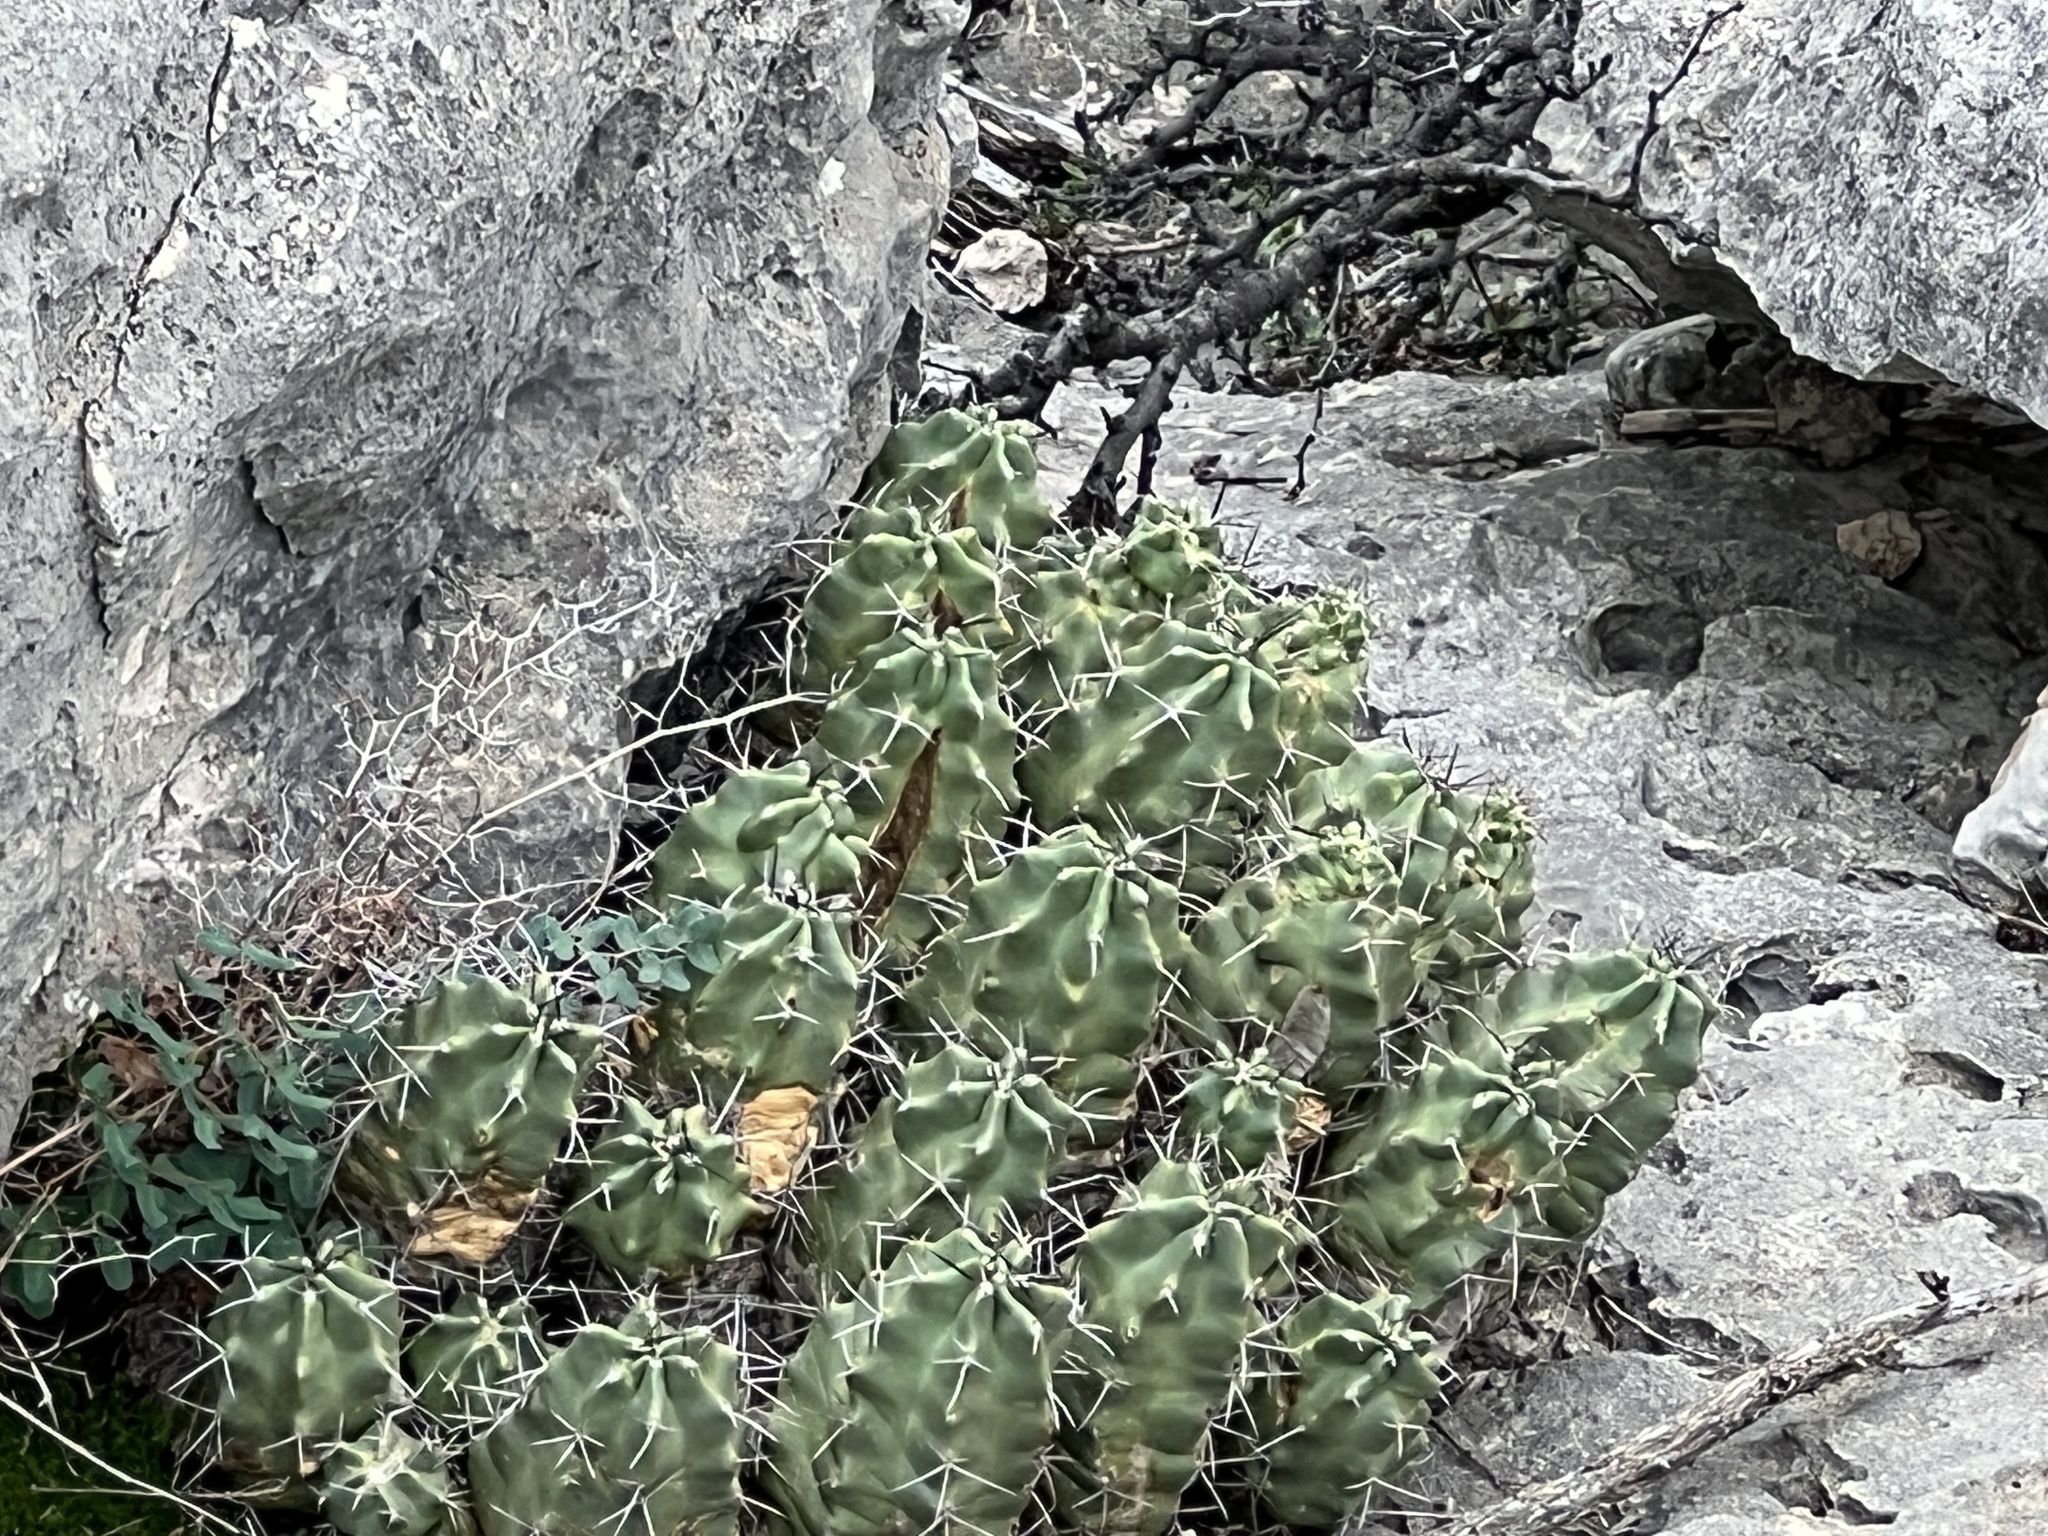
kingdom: Plantae
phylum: Tracheophyta
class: Magnoliopsida
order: Caryophyllales
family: Cactaceae
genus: Echinocereus
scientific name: Echinocereus coccineus
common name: Scarlet hedgehog cactus
